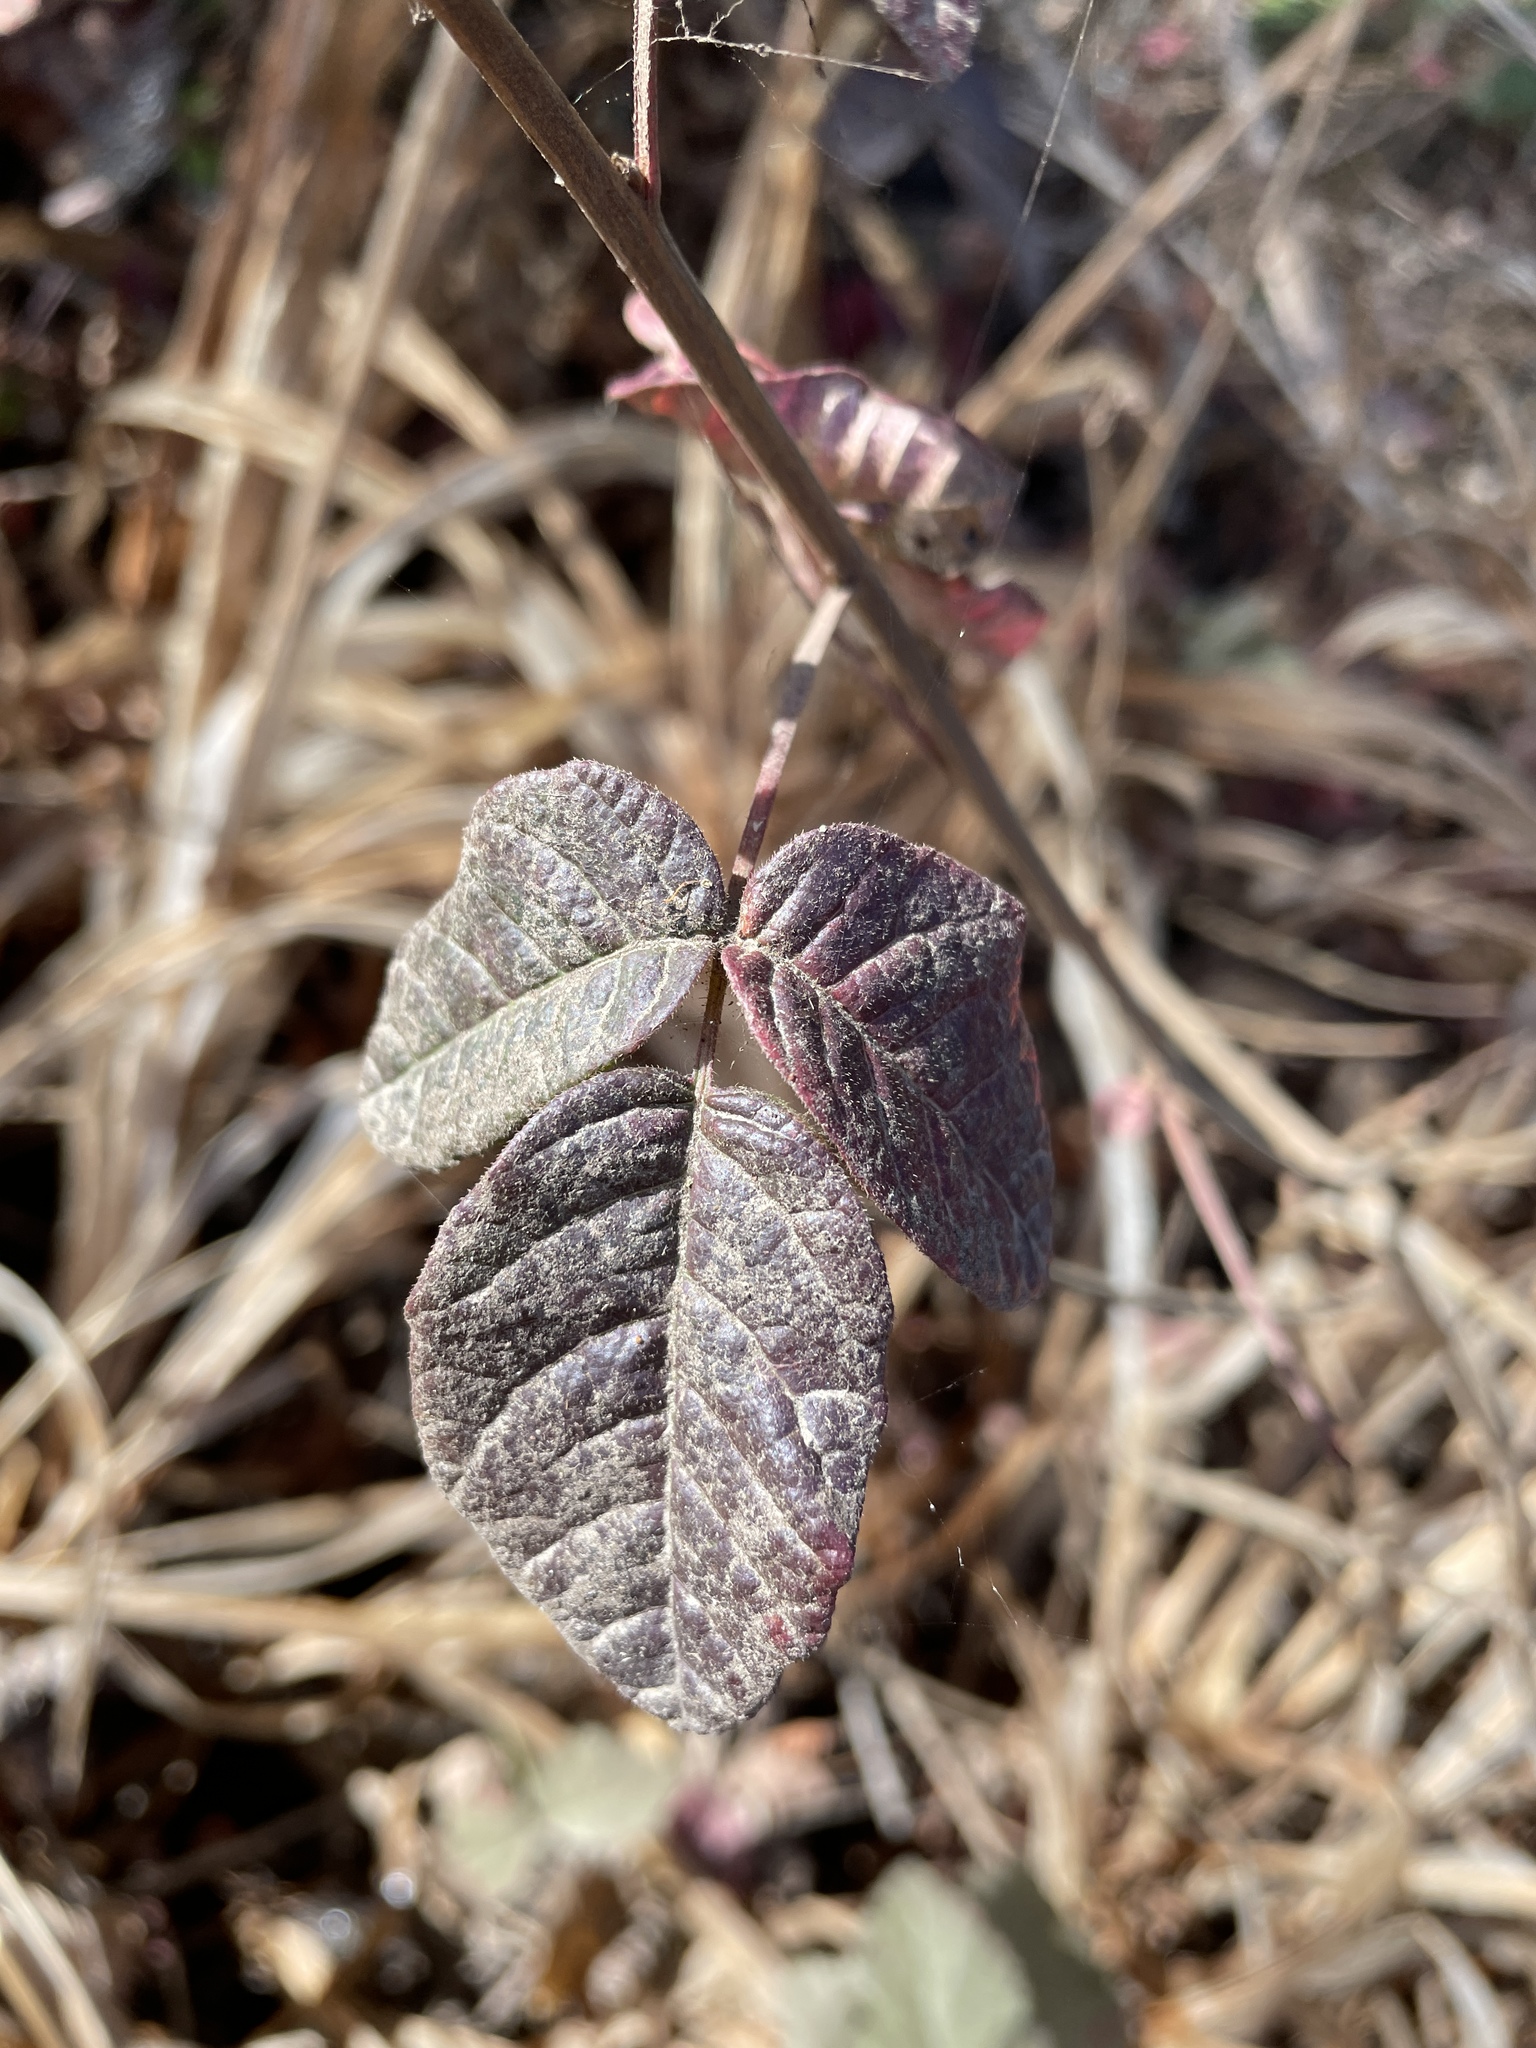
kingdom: Plantae
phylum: Tracheophyta
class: Magnoliopsida
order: Sapindales
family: Anacardiaceae
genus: Toxicodendron
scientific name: Toxicodendron diversilobum
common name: Pacific poison-oak
